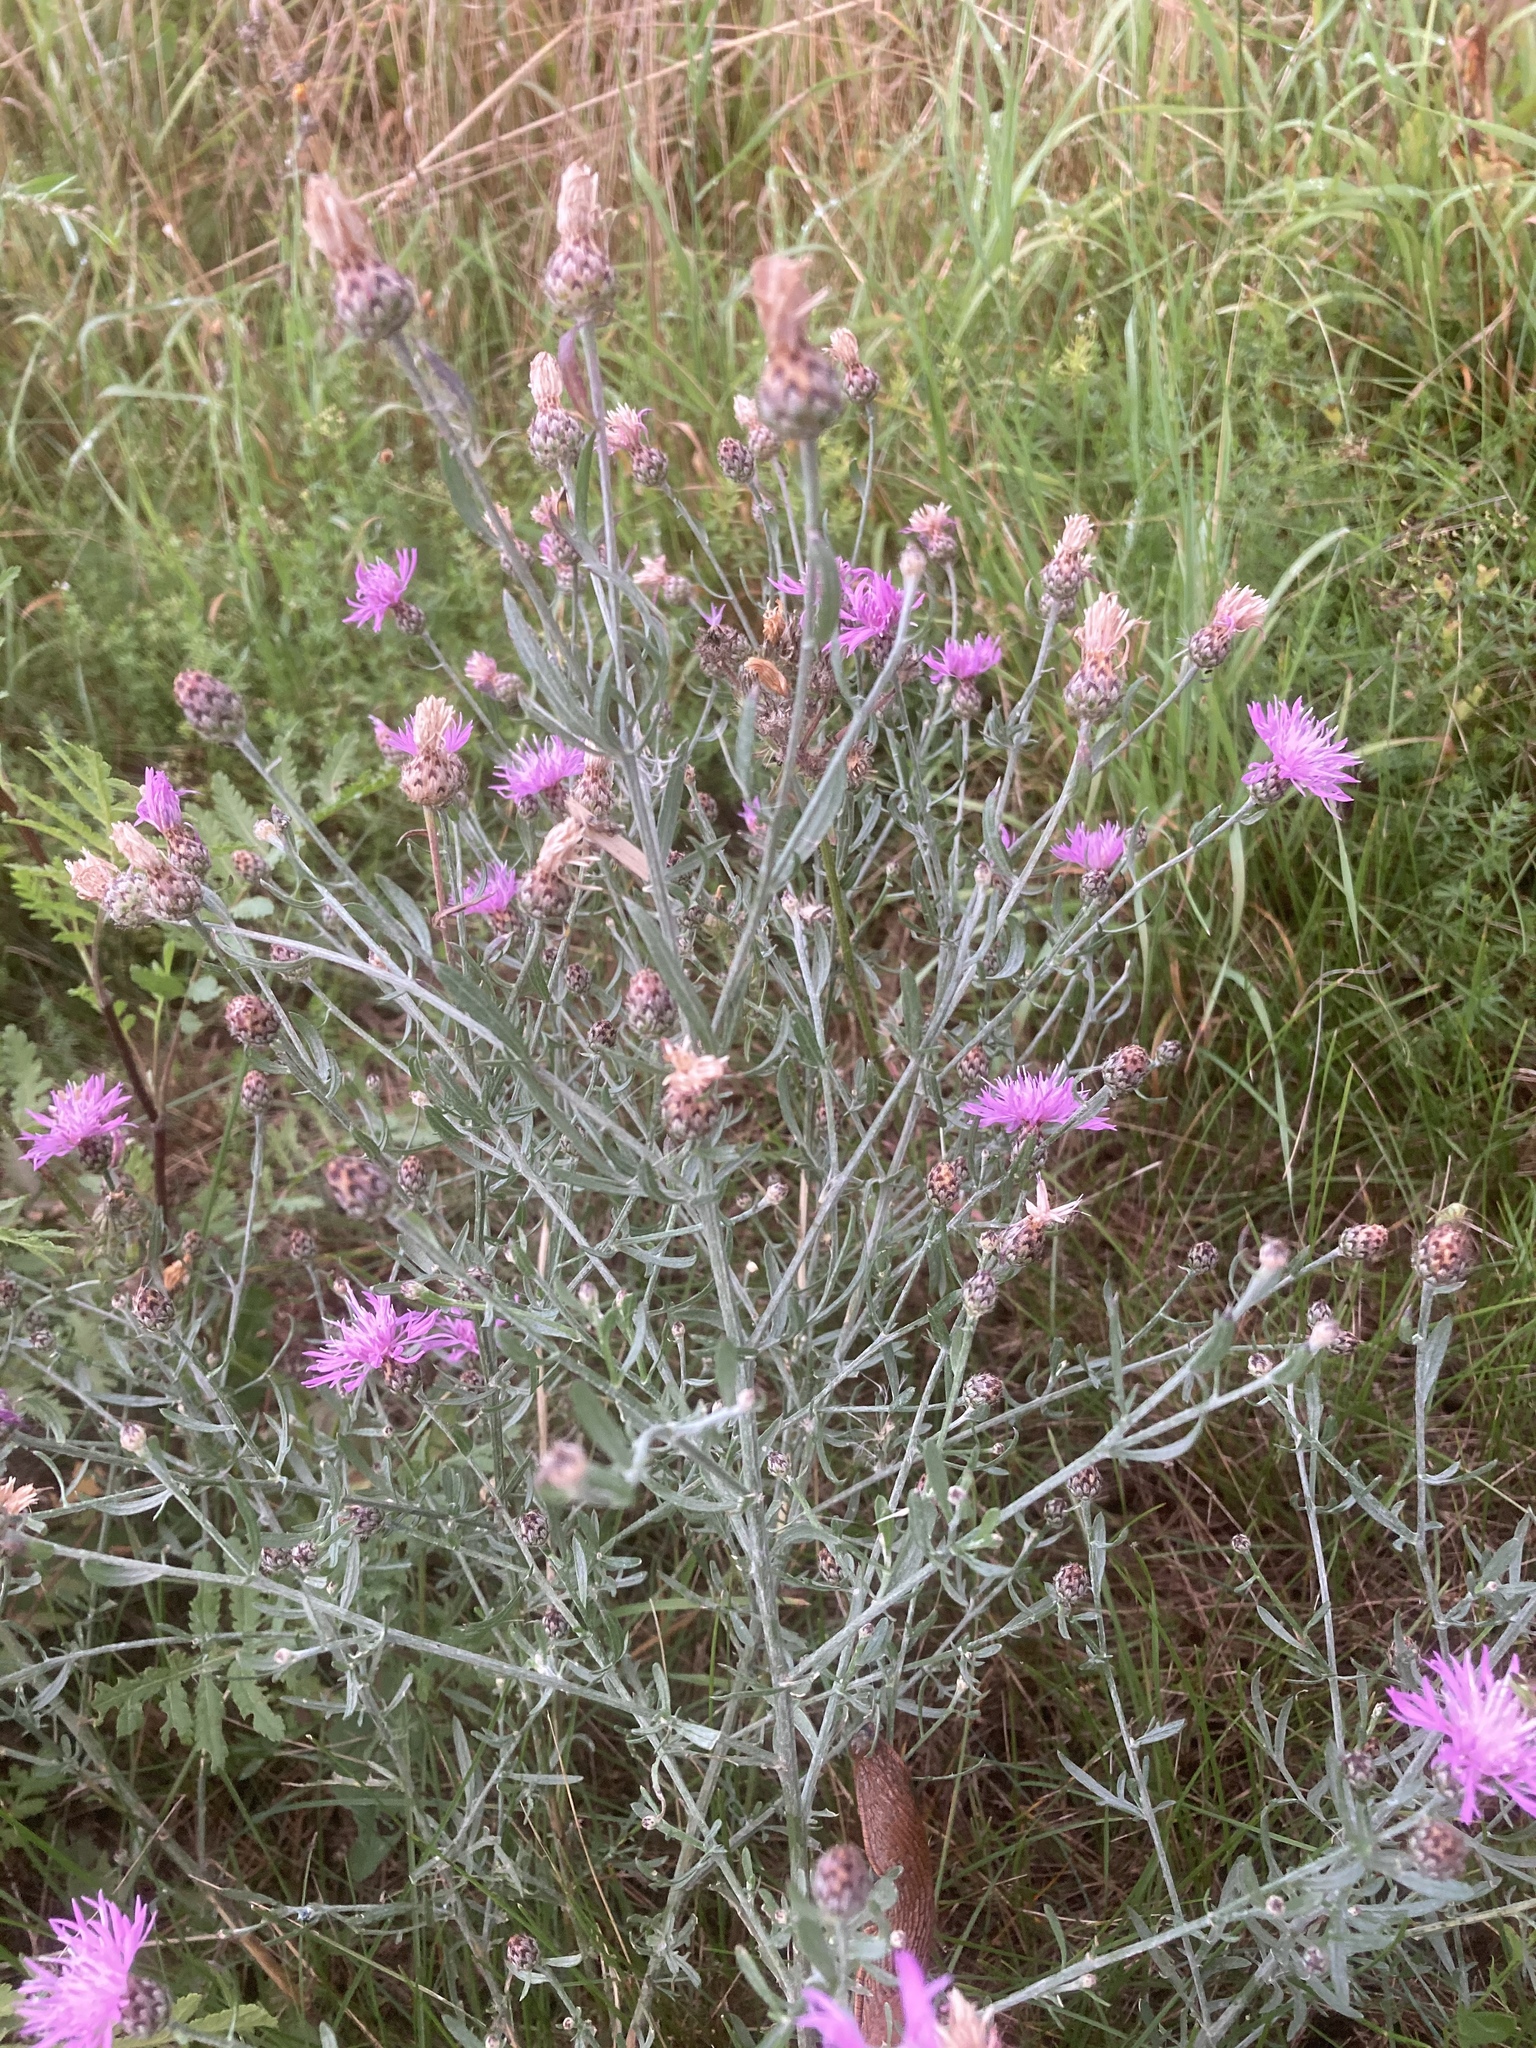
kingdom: Plantae
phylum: Tracheophyta
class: Magnoliopsida
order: Asterales
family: Asteraceae
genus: Centaurea
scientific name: Centaurea stoebe
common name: Spotted knapweed
